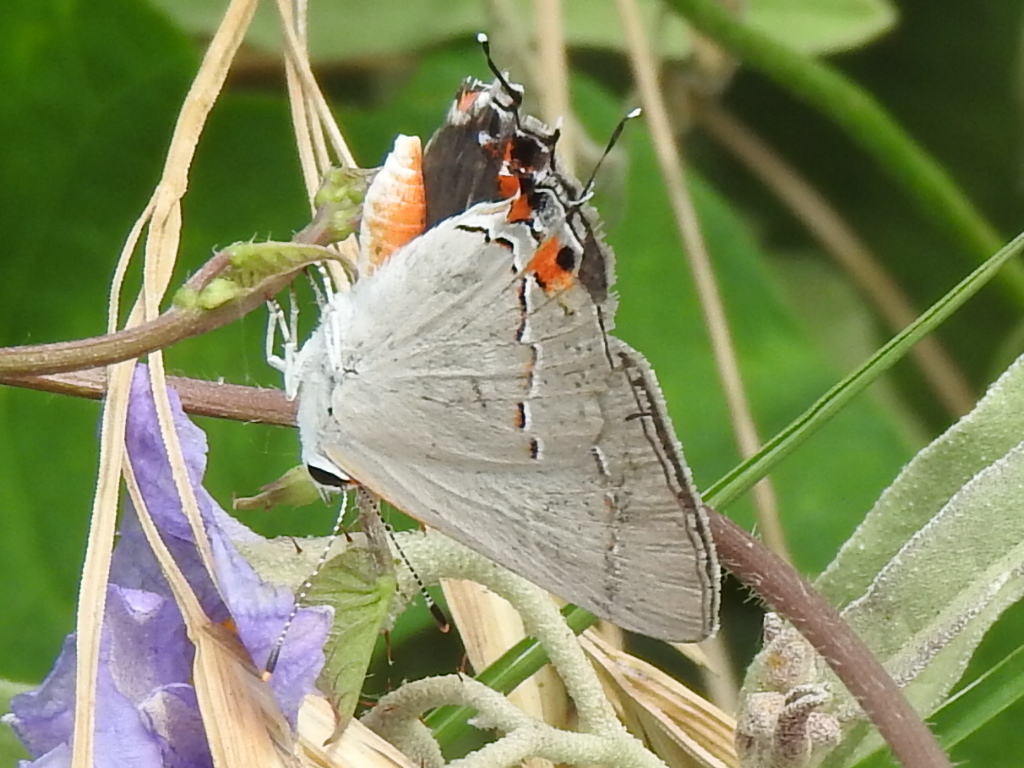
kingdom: Animalia
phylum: Arthropoda
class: Insecta
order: Lepidoptera
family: Lycaenidae
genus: Strymon
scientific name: Strymon melinus
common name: Gray hairstreak
